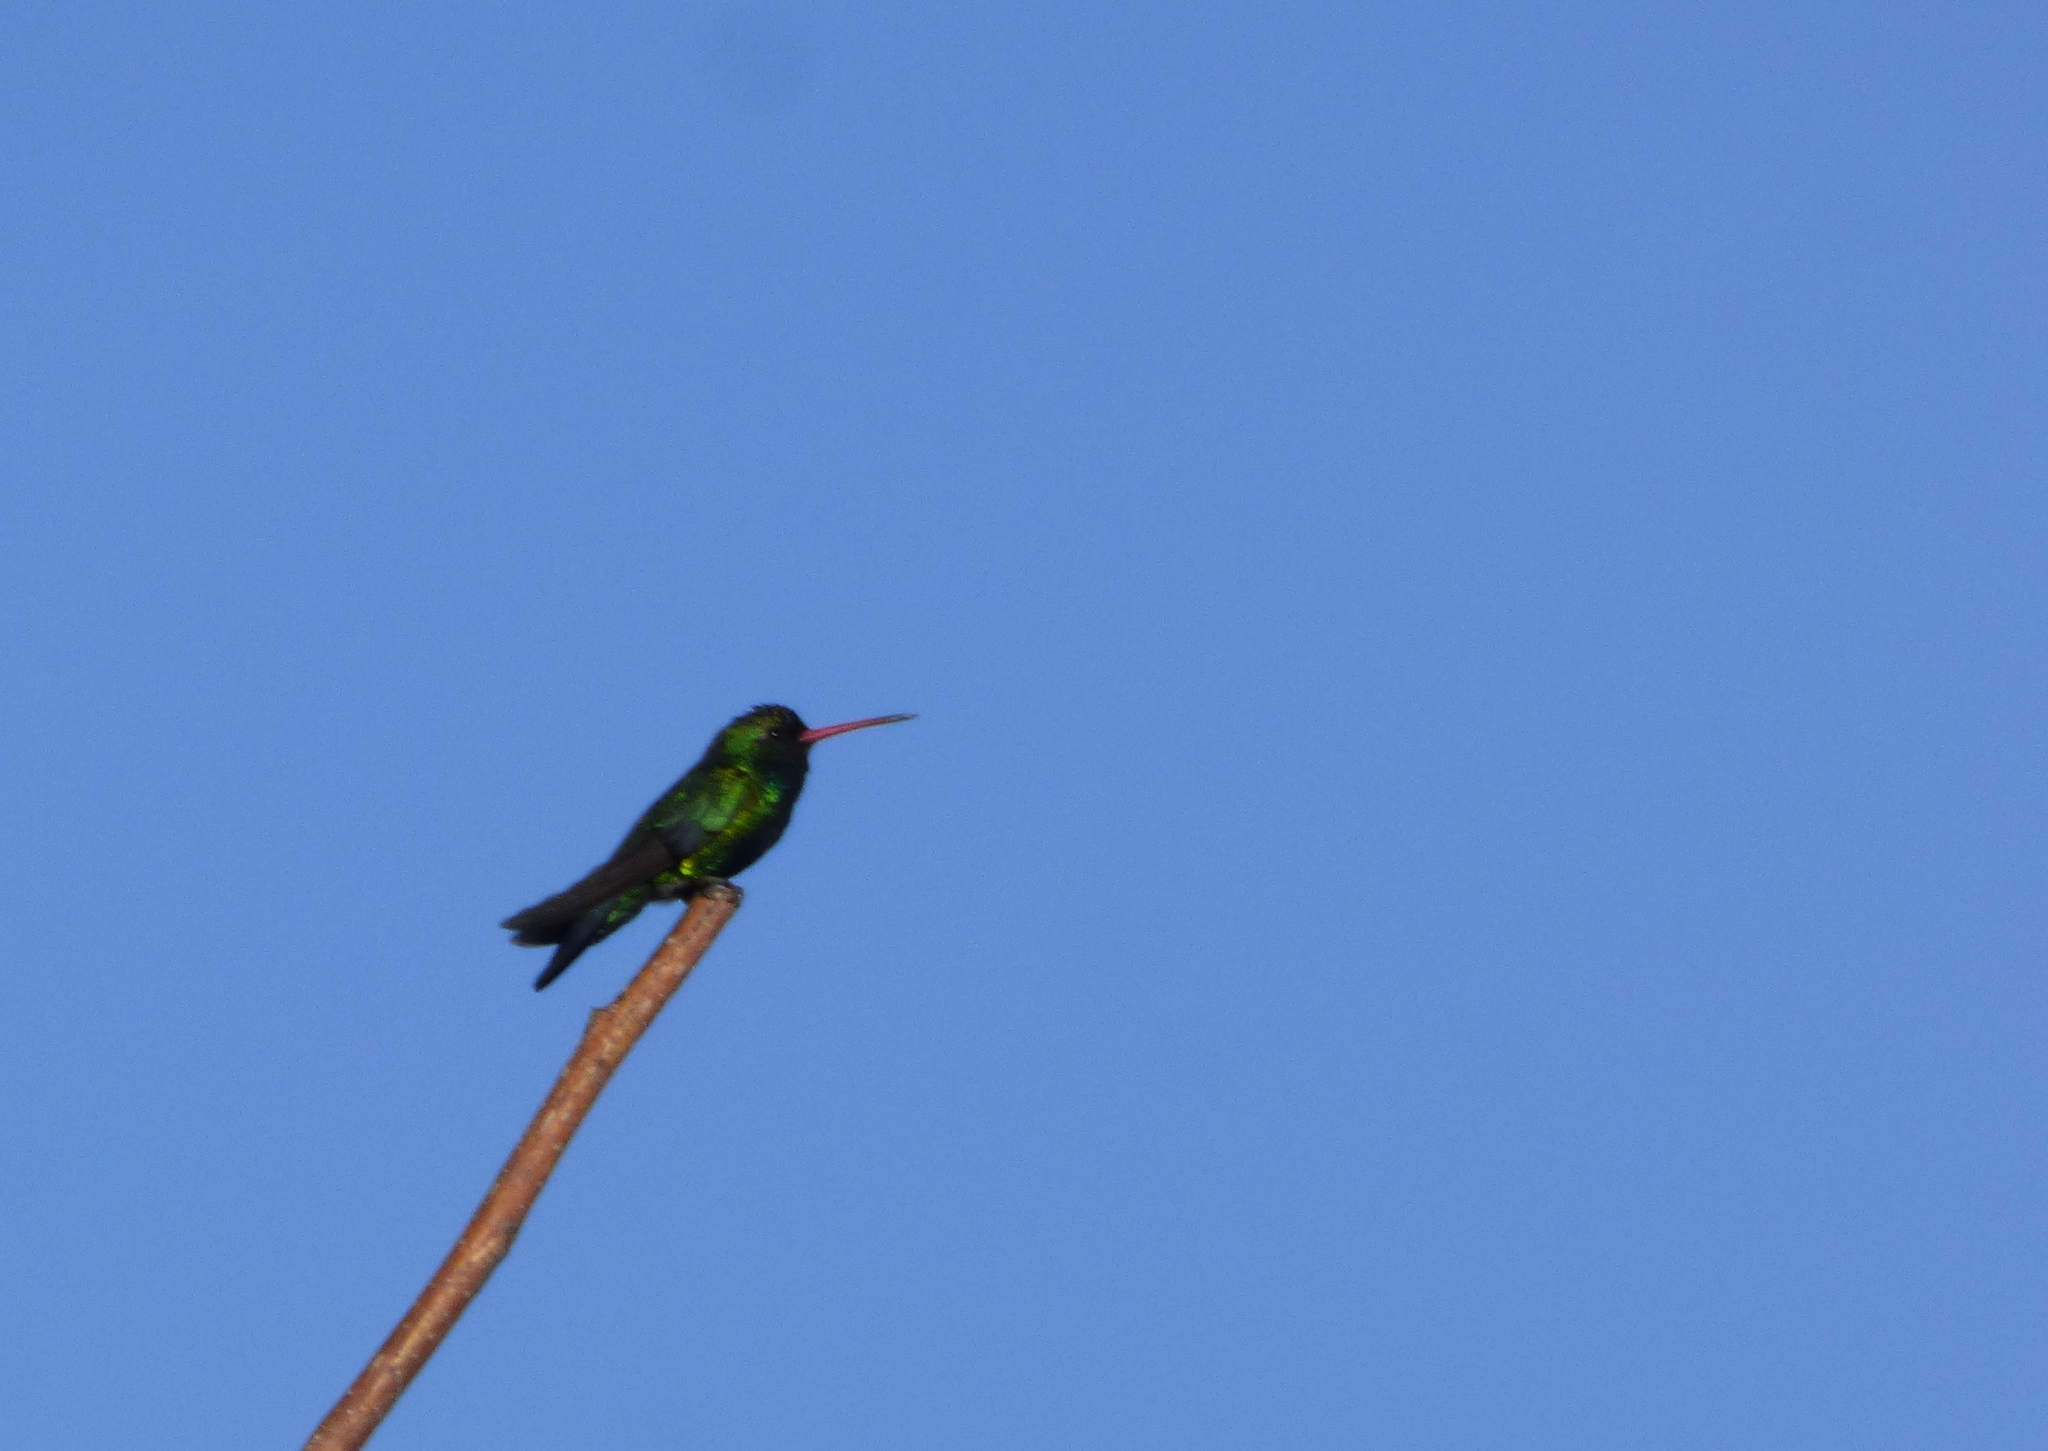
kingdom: Animalia
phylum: Chordata
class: Aves
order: Apodiformes
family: Trochilidae
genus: Chlorostilbon
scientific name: Chlorostilbon lucidus
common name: Glittering-bellied emerald
